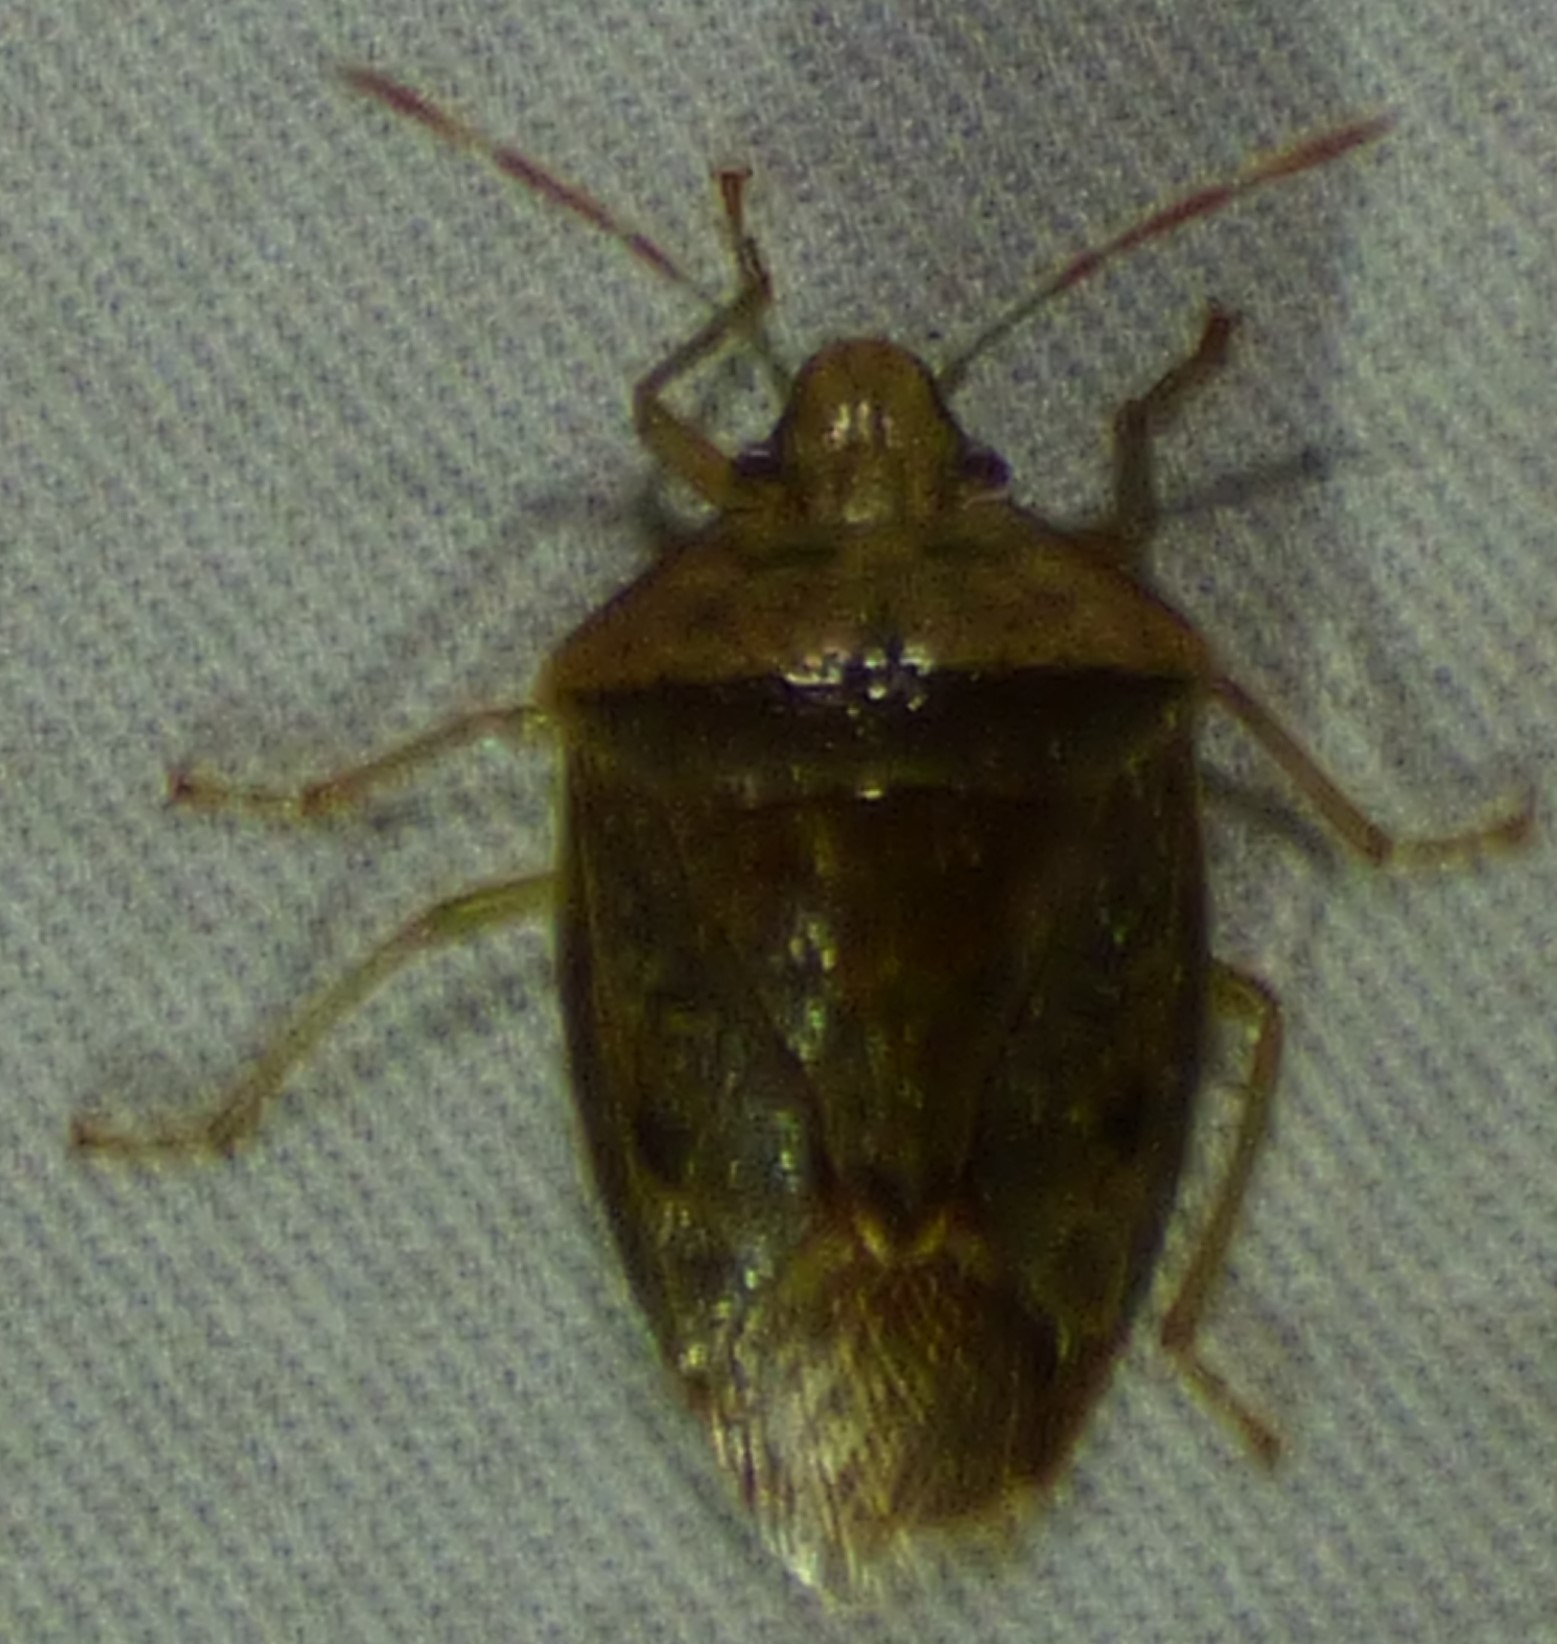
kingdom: Animalia
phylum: Arthropoda
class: Insecta
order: Hemiptera
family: Pentatomidae
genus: Banasa
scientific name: Banasa calva
